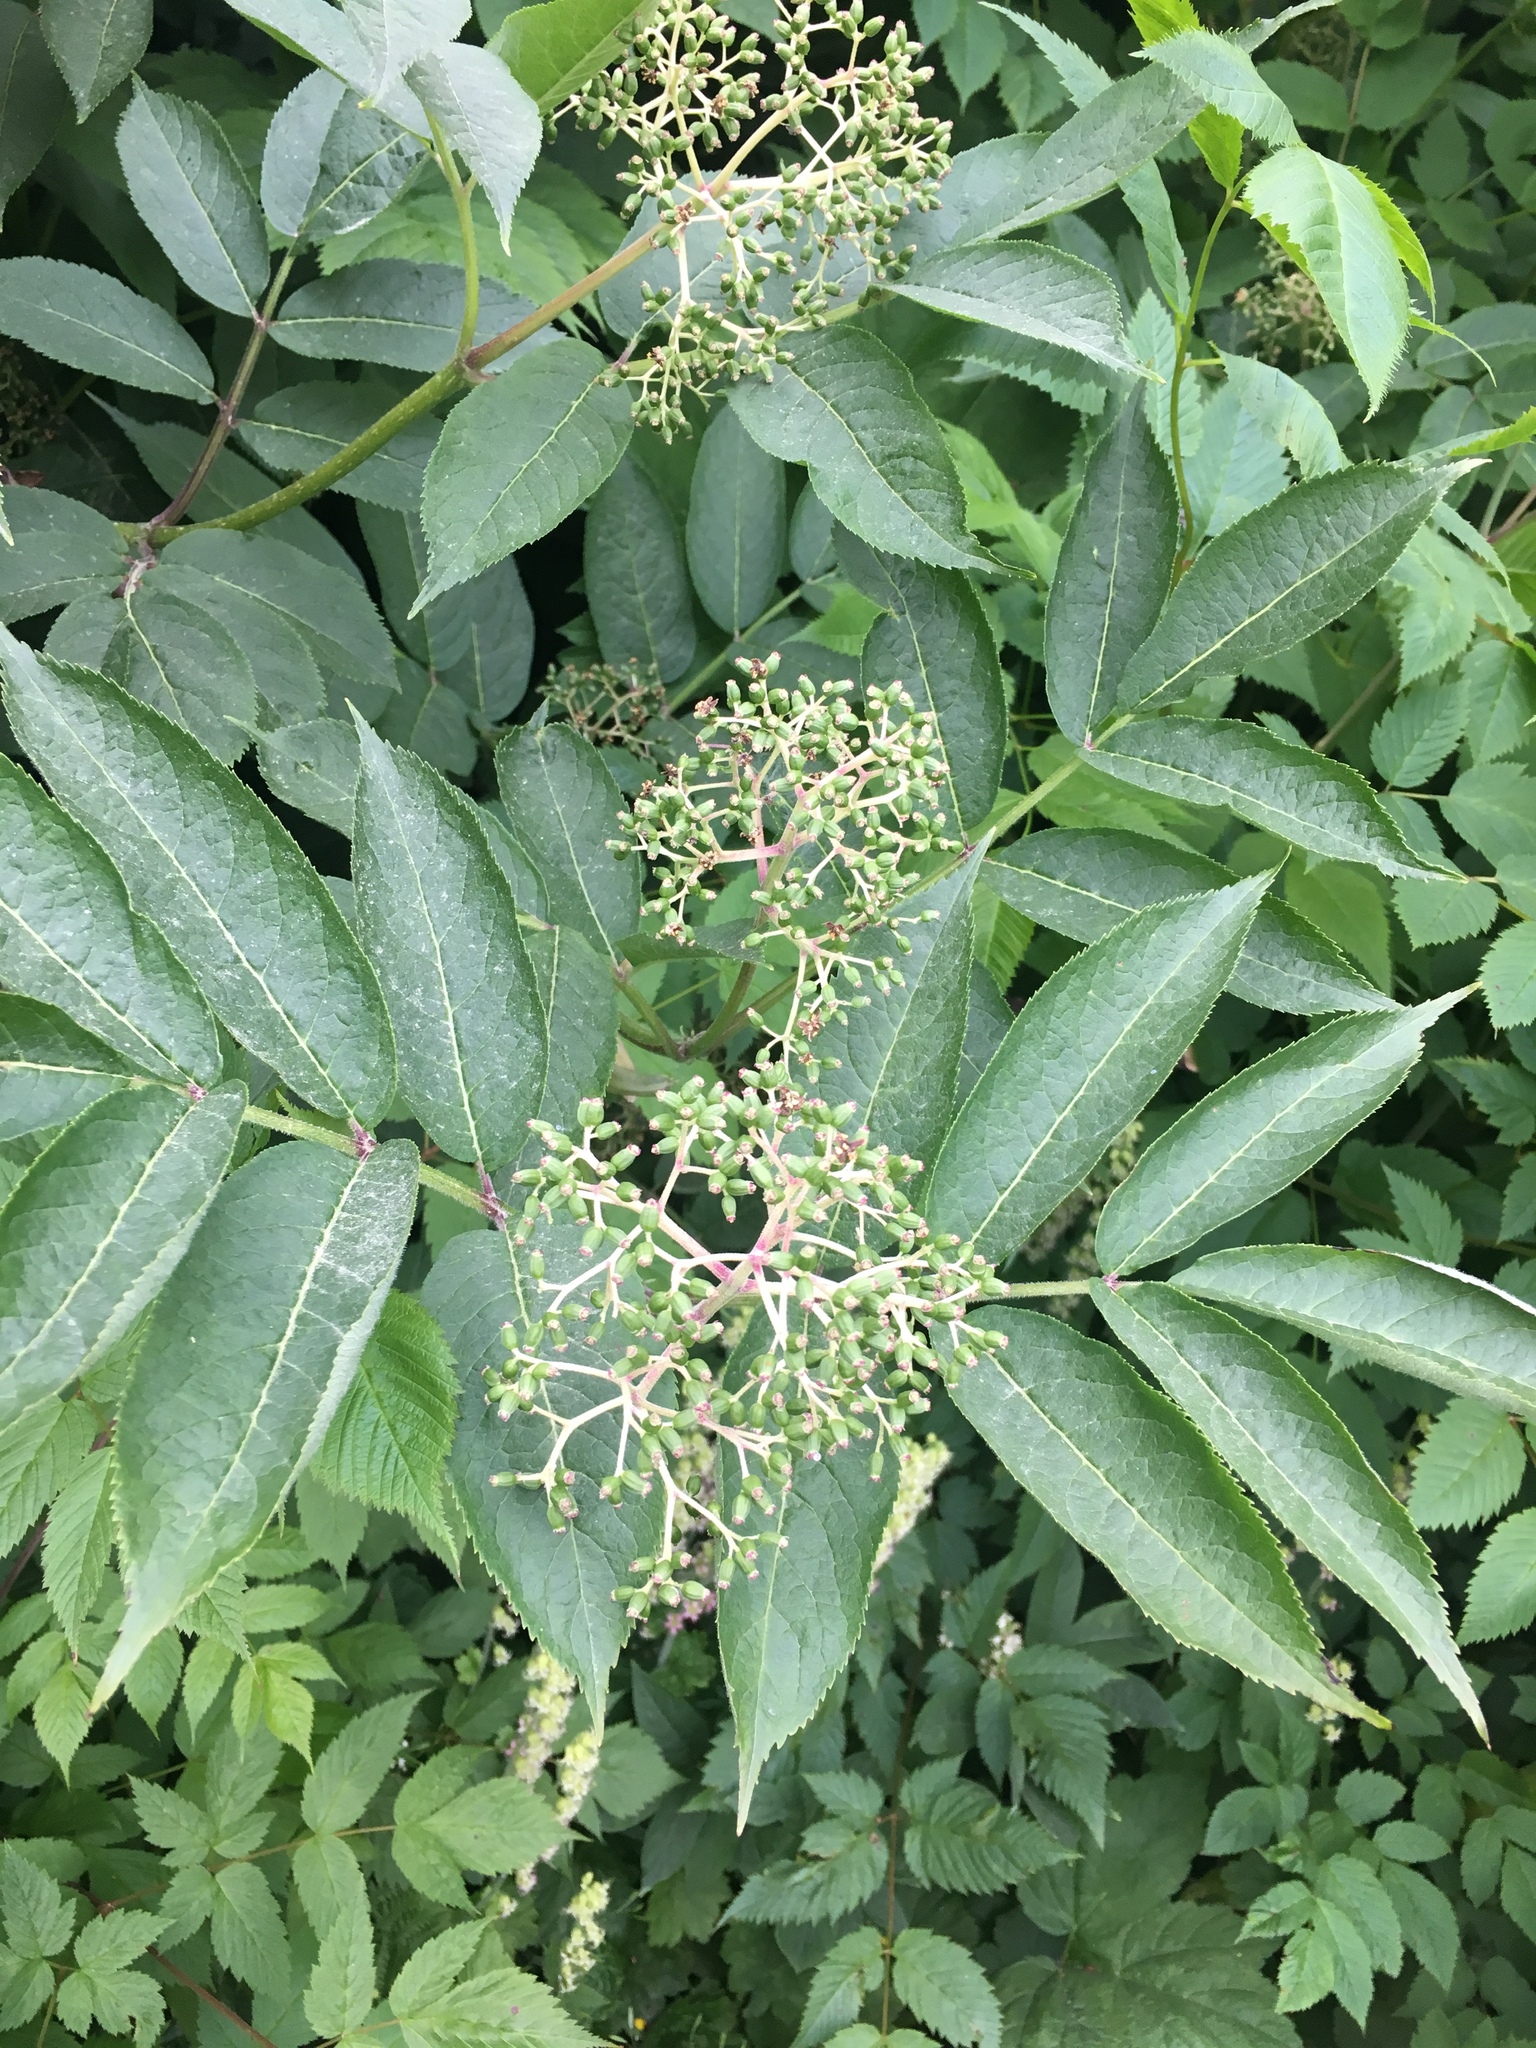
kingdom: Plantae
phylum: Tracheophyta
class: Magnoliopsida
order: Dipsacales
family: Viburnaceae
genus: Sambucus
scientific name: Sambucus racemosa
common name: Red-berried elder
